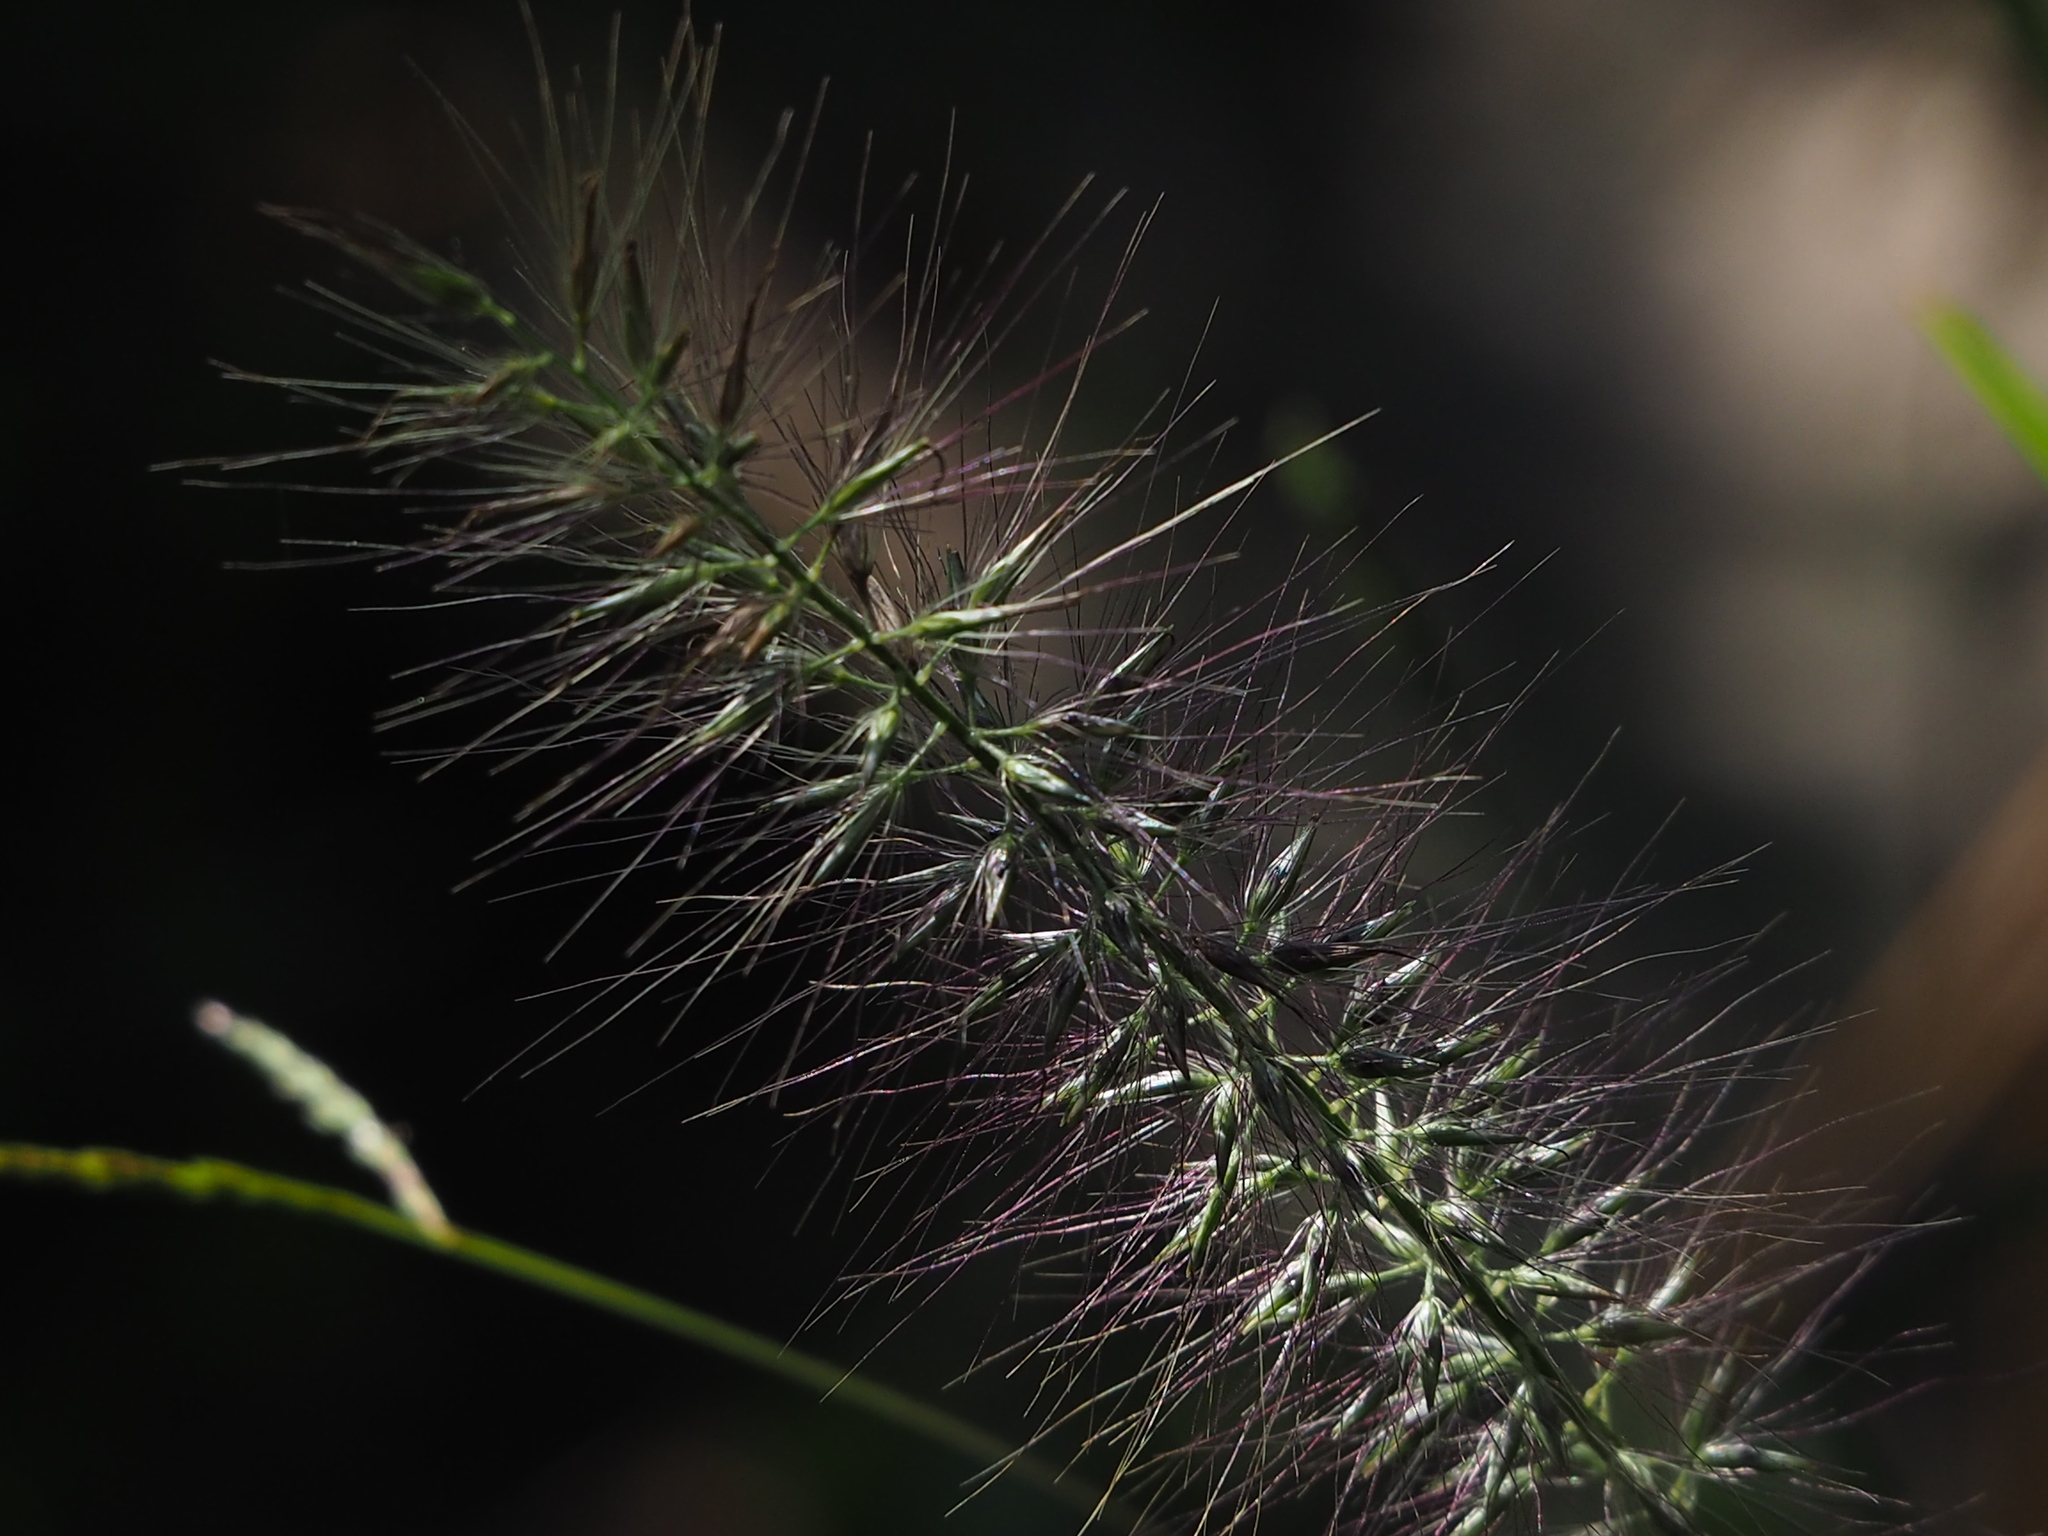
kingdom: Plantae
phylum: Tracheophyta
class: Liliopsida
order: Poales
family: Poaceae
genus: Cenchrus
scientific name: Cenchrus alopecuroides
